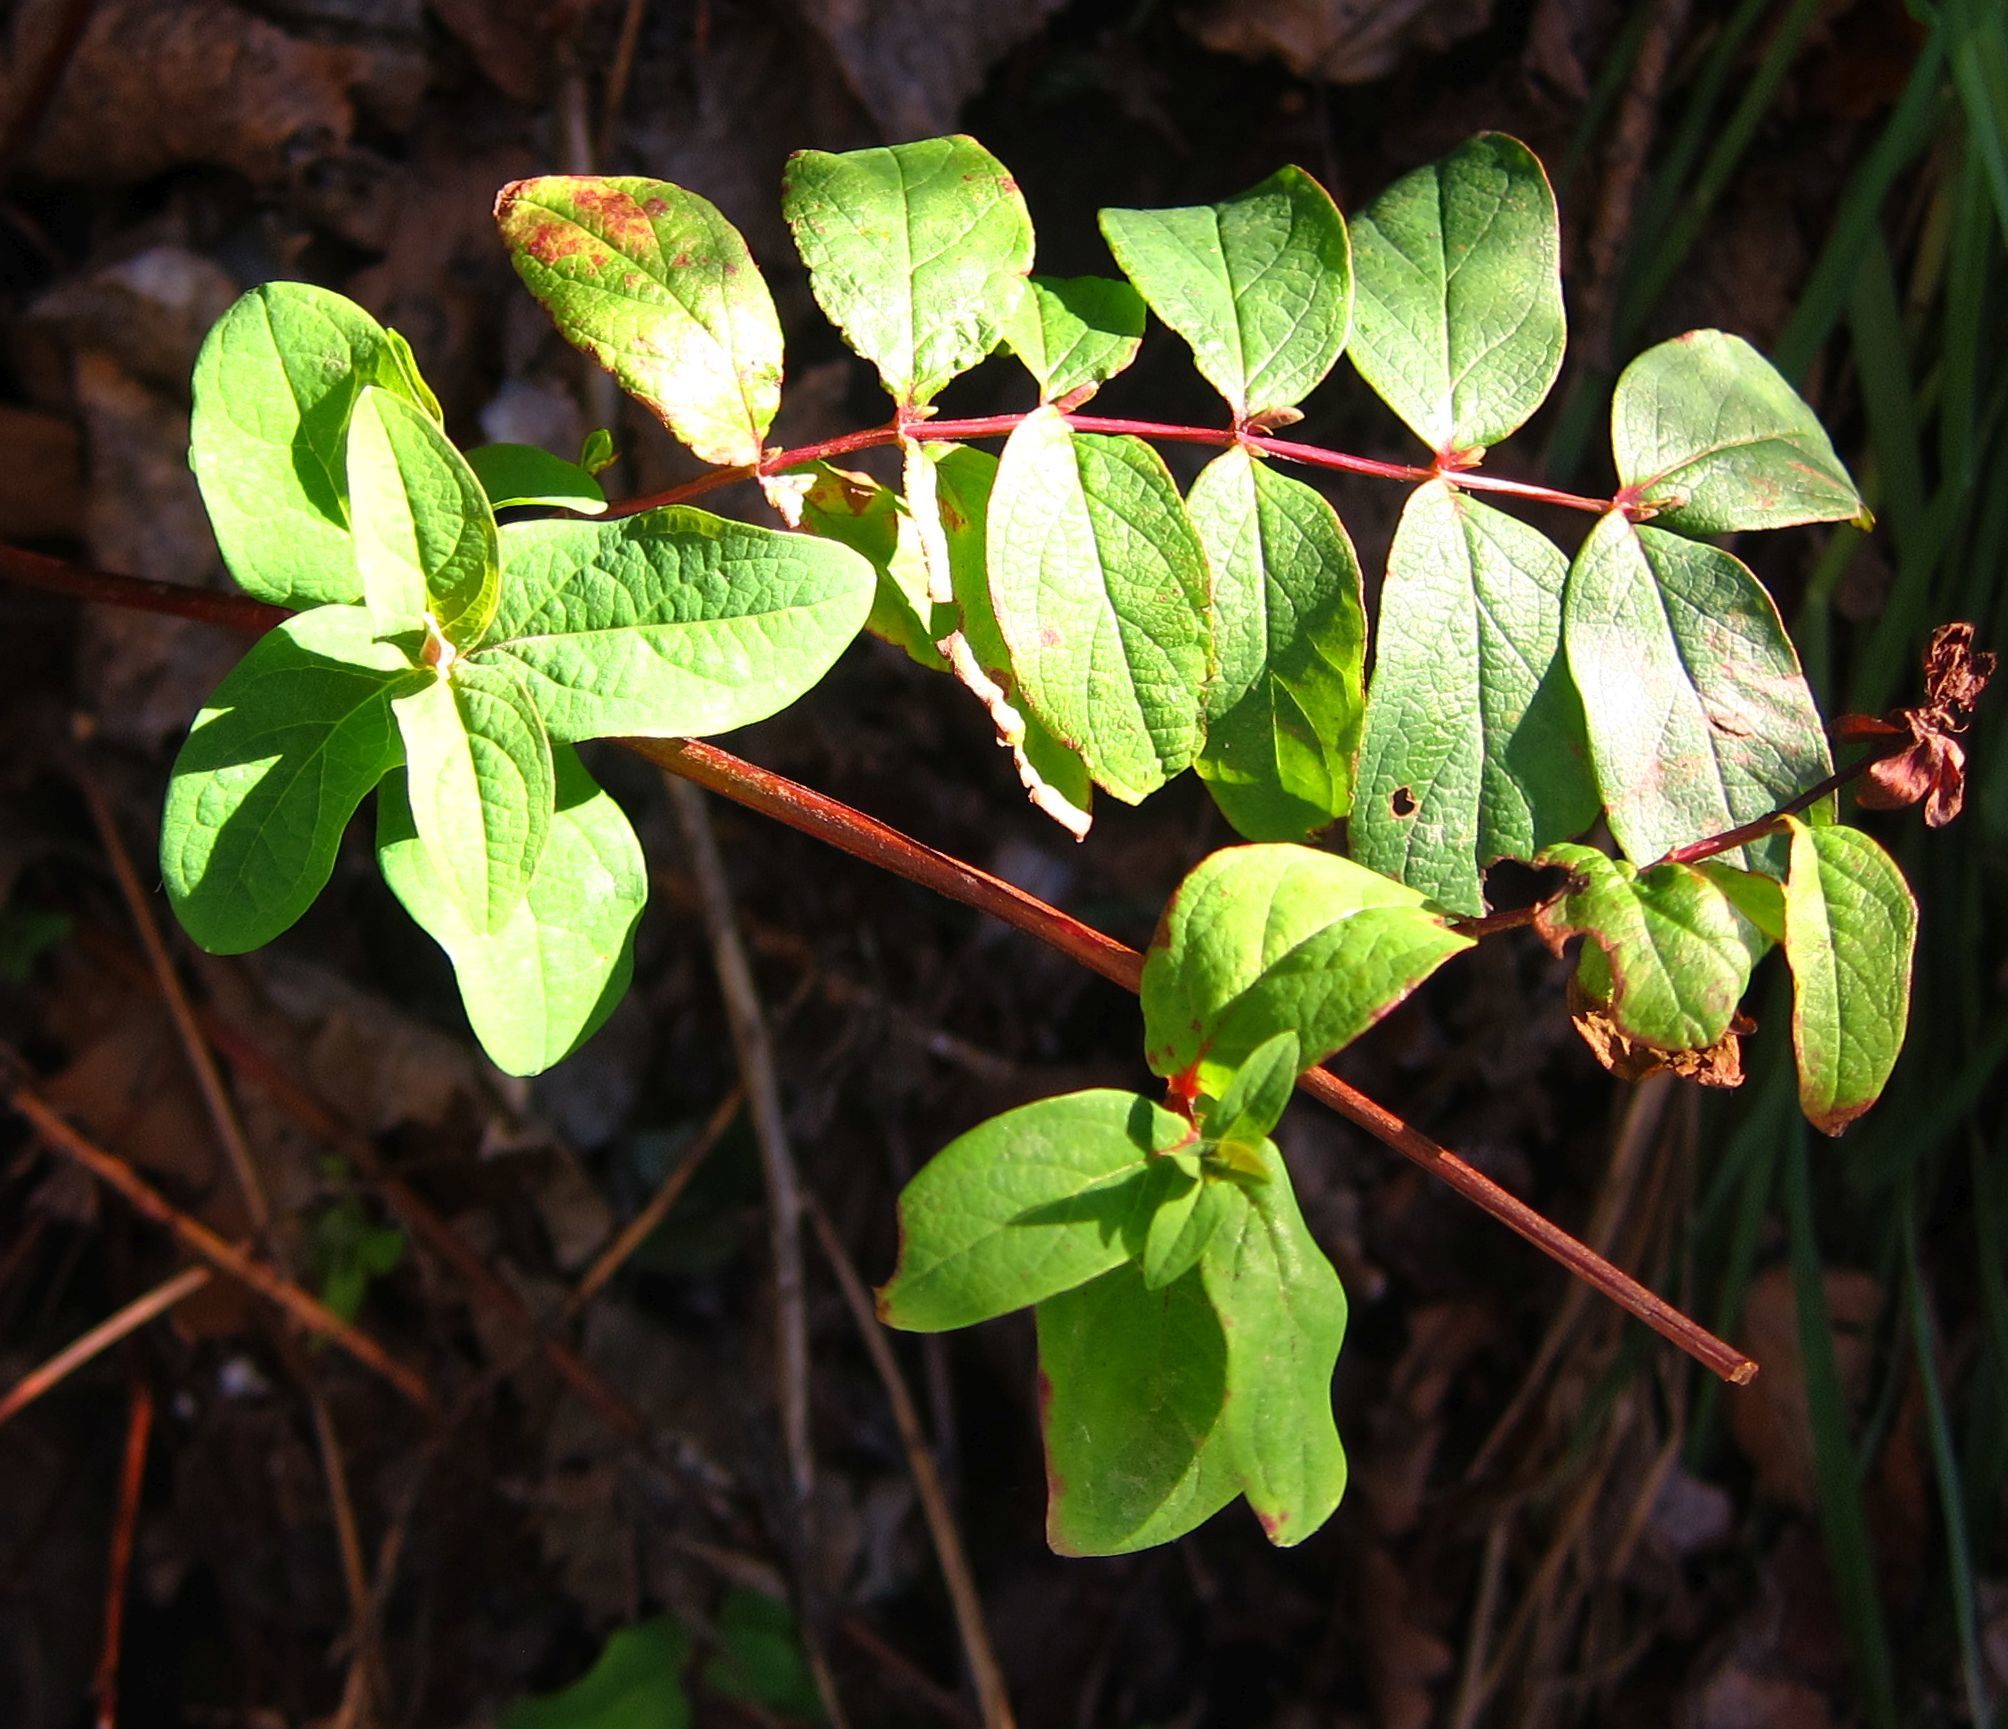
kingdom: Plantae
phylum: Tracheophyta
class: Magnoliopsida
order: Malpighiales
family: Hypericaceae
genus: Hypericum
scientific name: Hypericum androsaemum
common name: Sweet-amber
